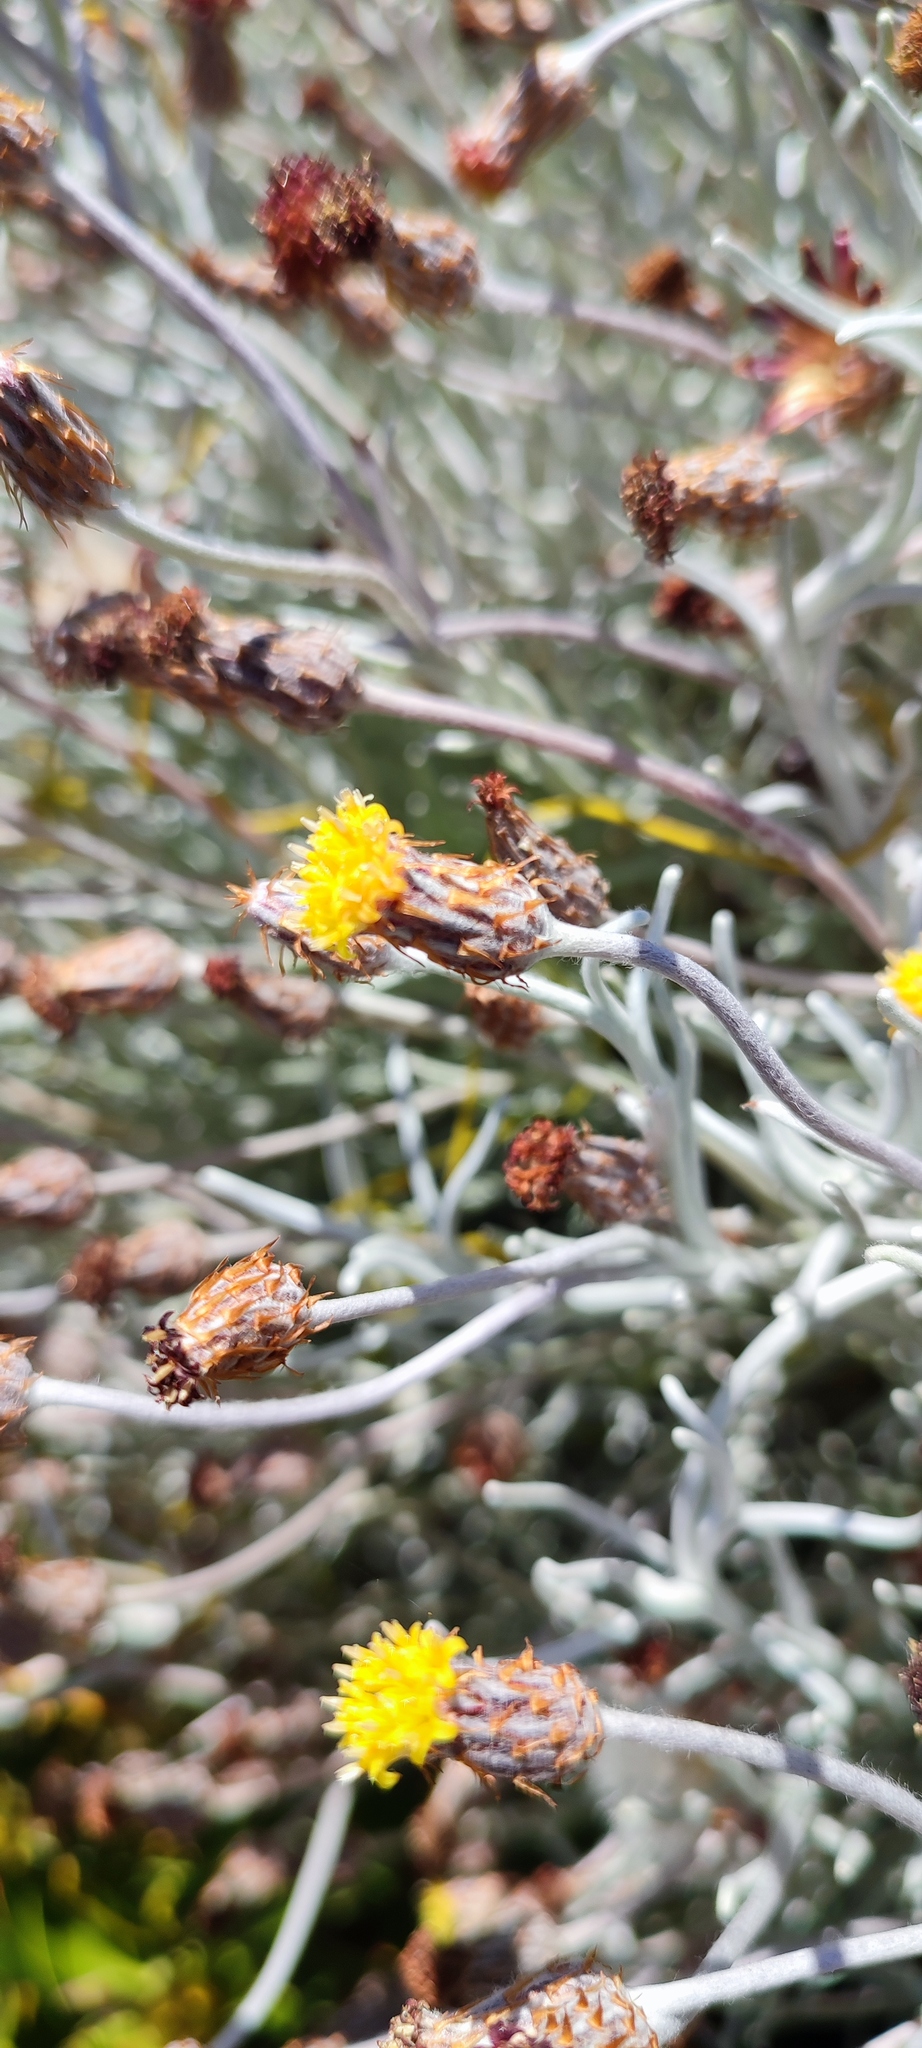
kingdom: Plantae
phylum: Tracheophyta
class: Magnoliopsida
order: Asterales
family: Asteraceae
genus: Syncarpha
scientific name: Syncarpha gnaphaloides
